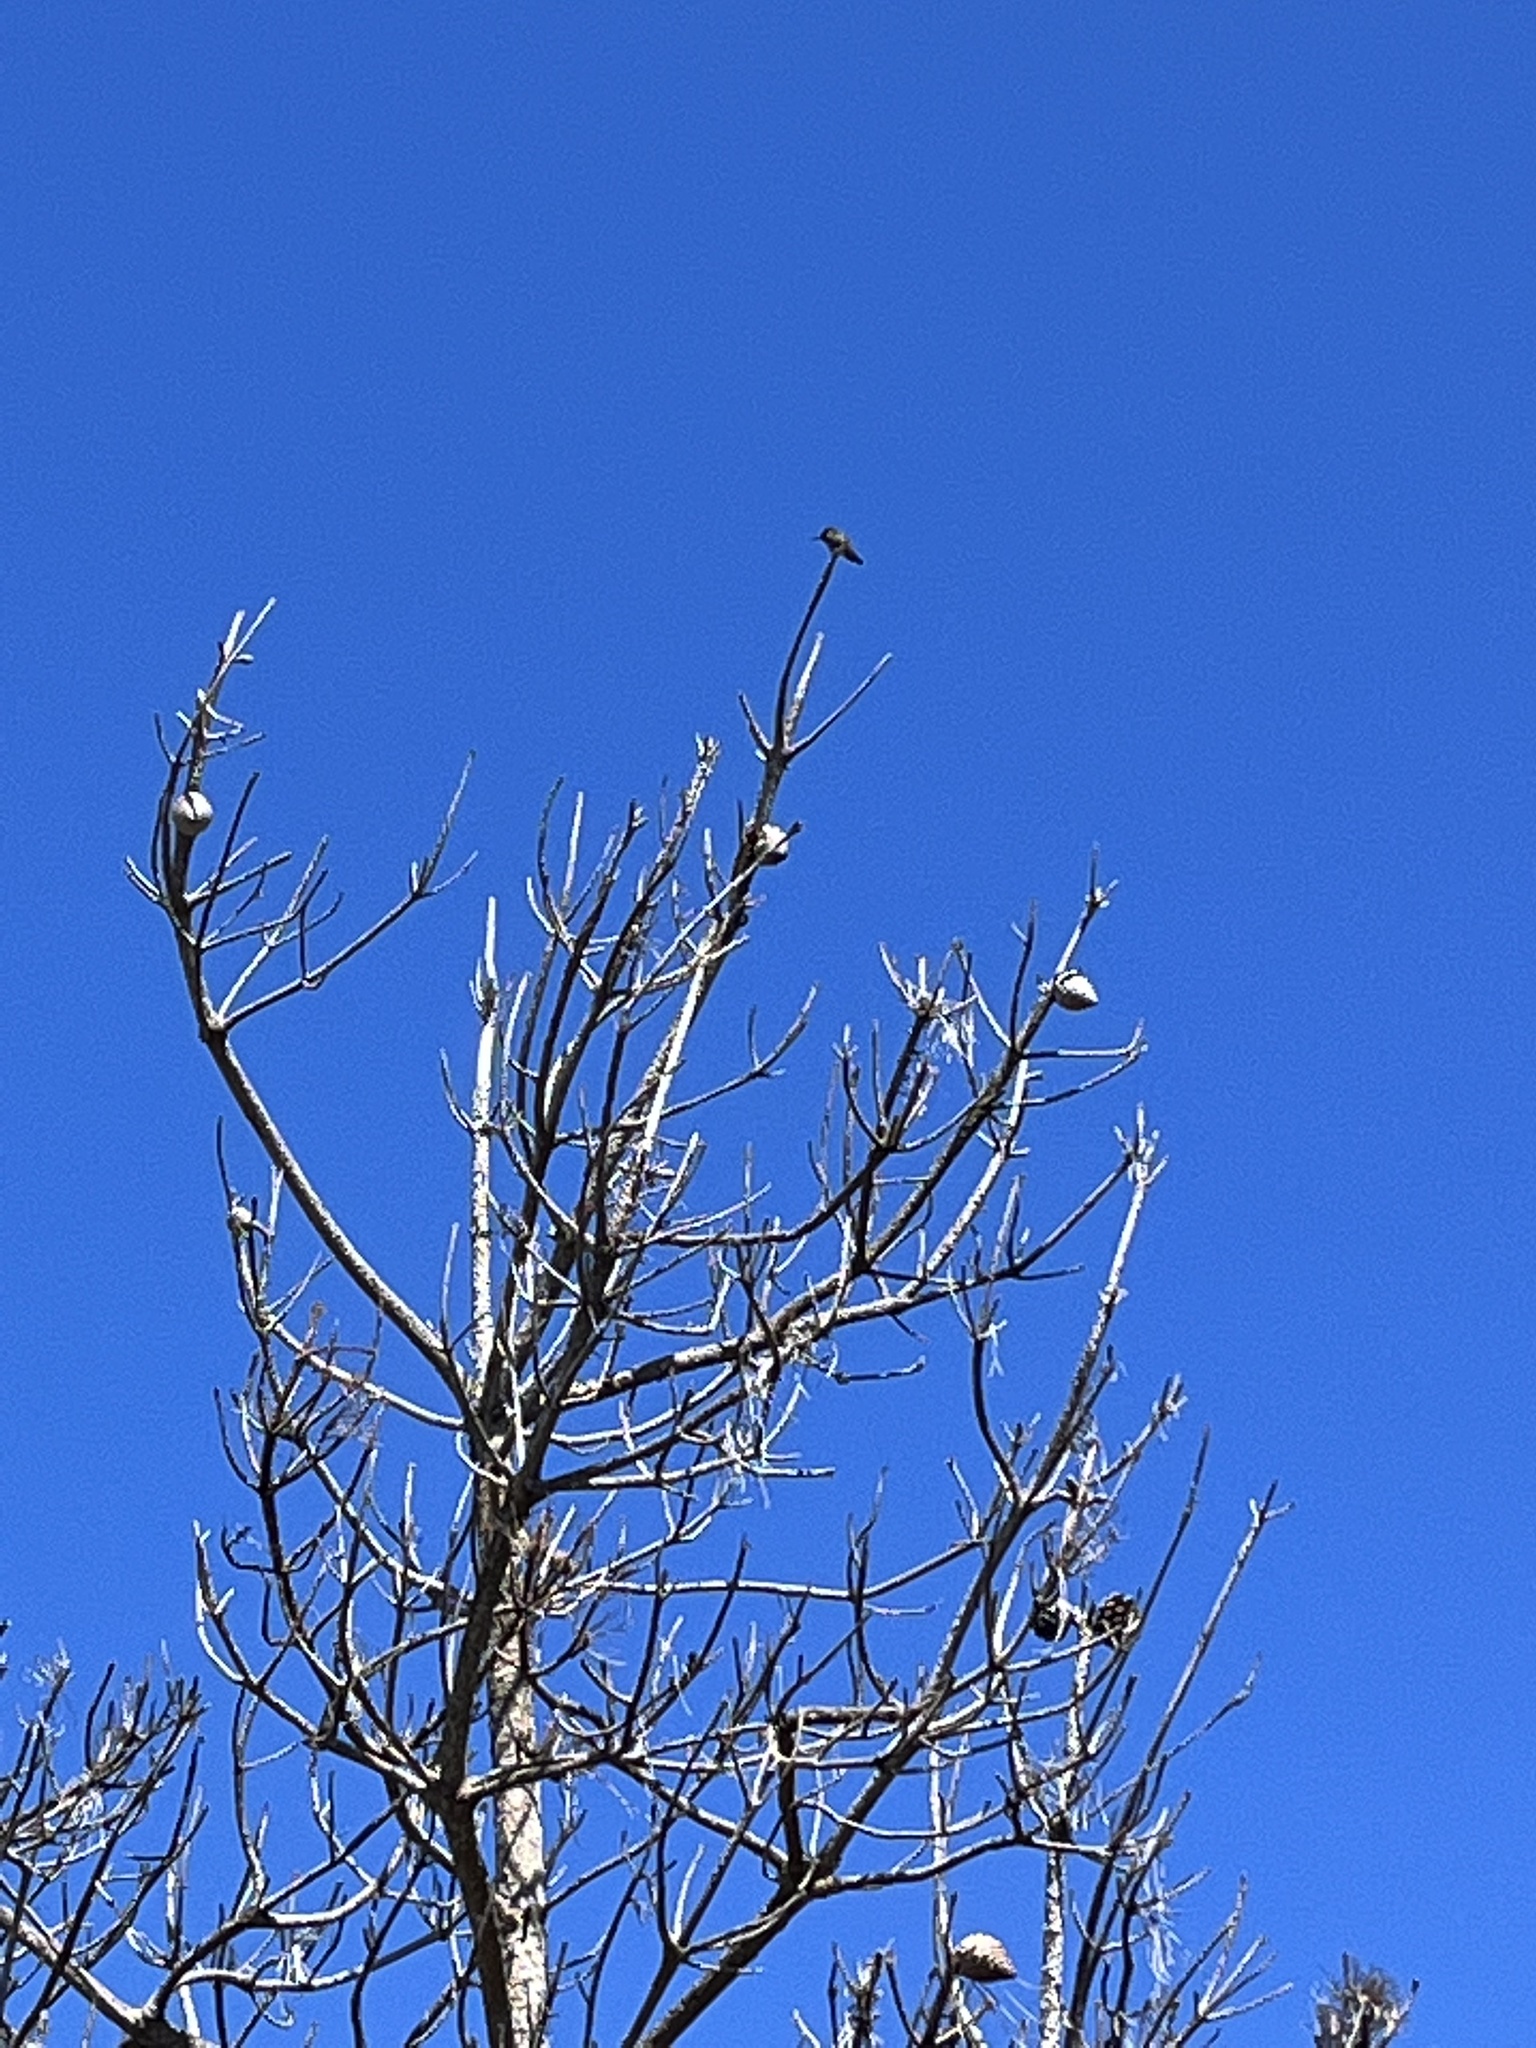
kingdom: Animalia
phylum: Chordata
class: Aves
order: Apodiformes
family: Trochilidae
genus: Calypte
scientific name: Calypte anna
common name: Anna's hummingbird
